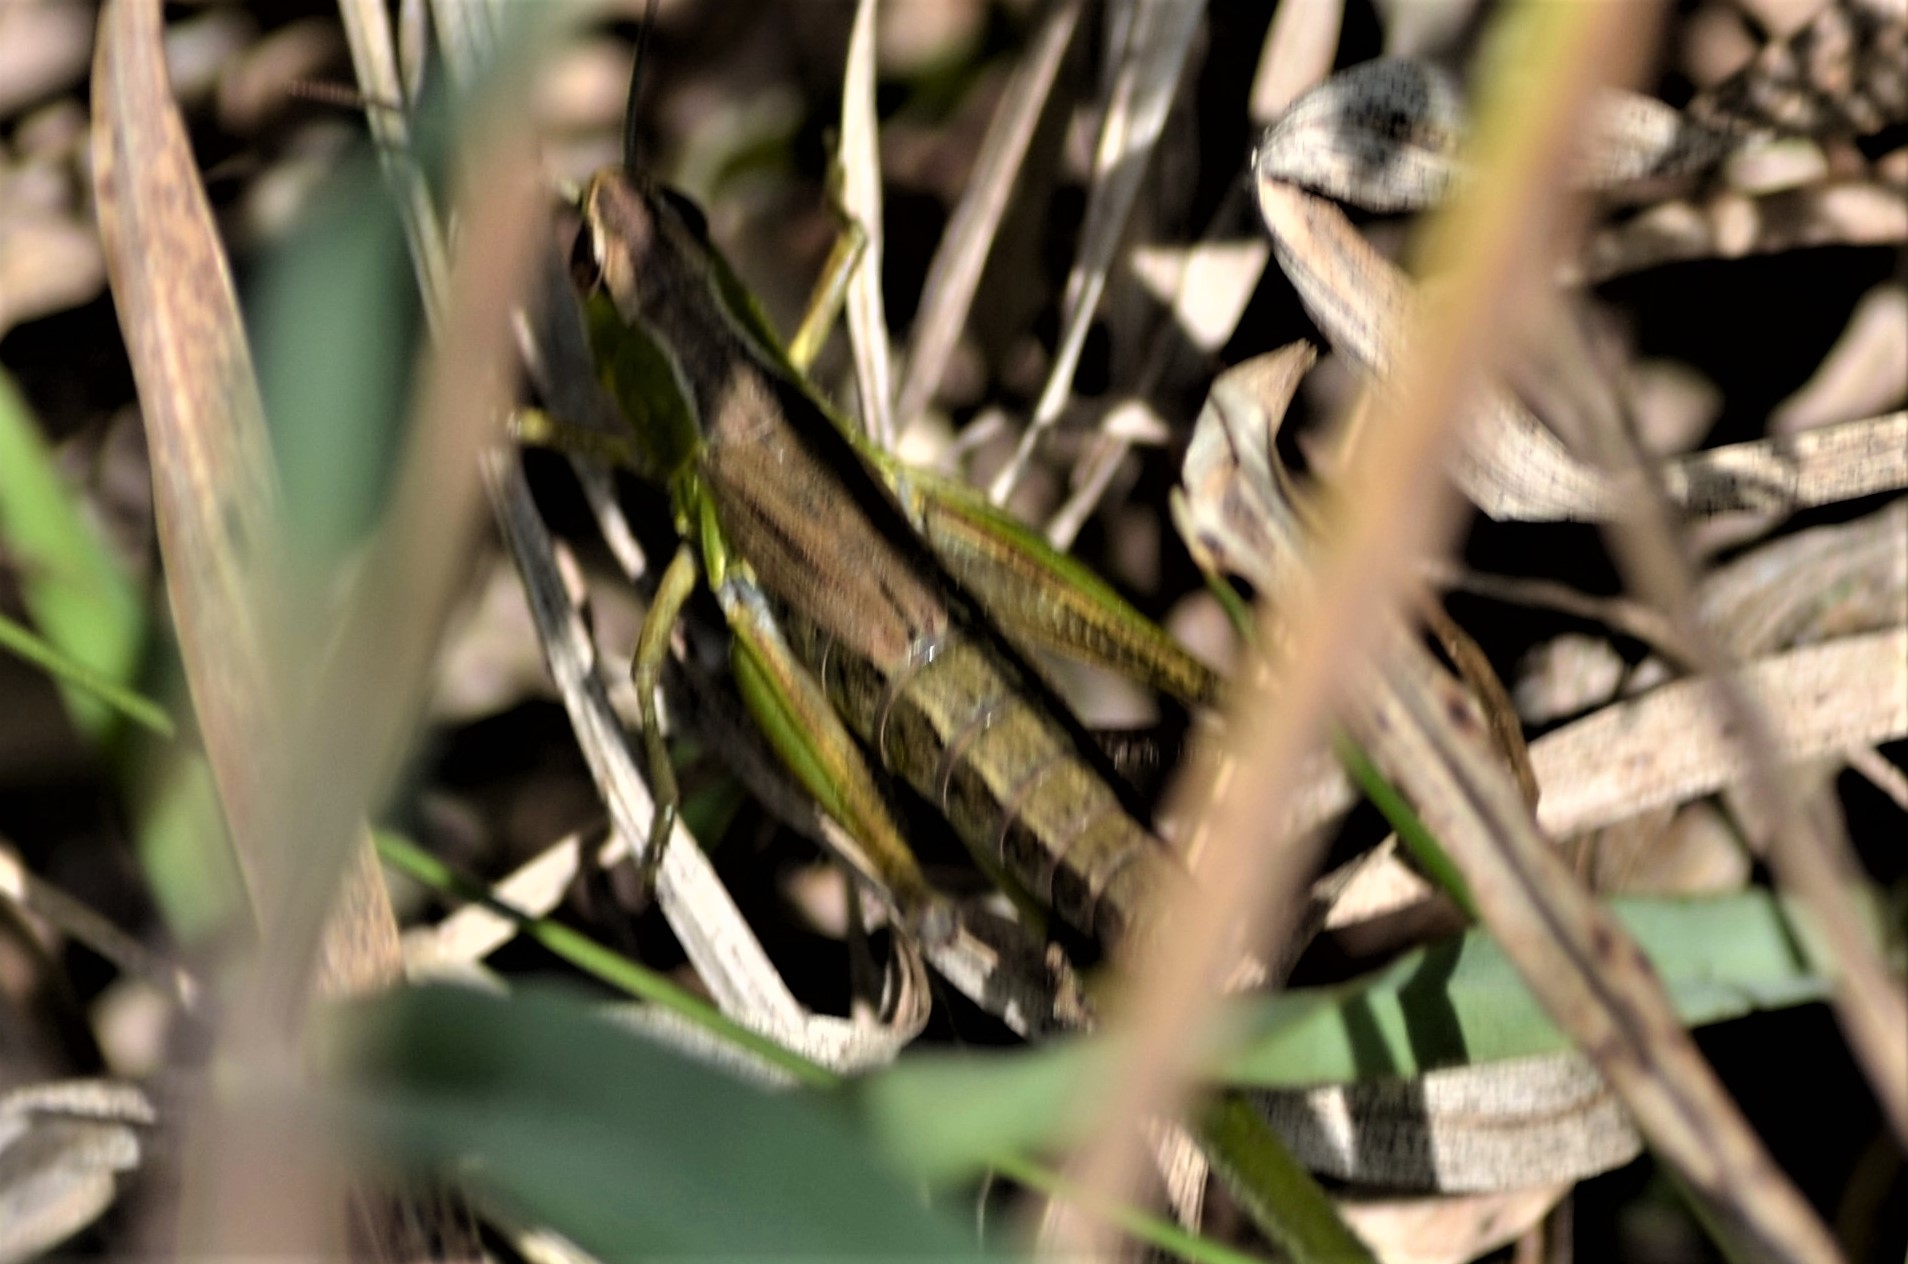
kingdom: Animalia
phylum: Arthropoda
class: Insecta
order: Orthoptera
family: Acrididae
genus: Pseudochorthippus
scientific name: Pseudochorthippus parallelus
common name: Meadow grasshopper
